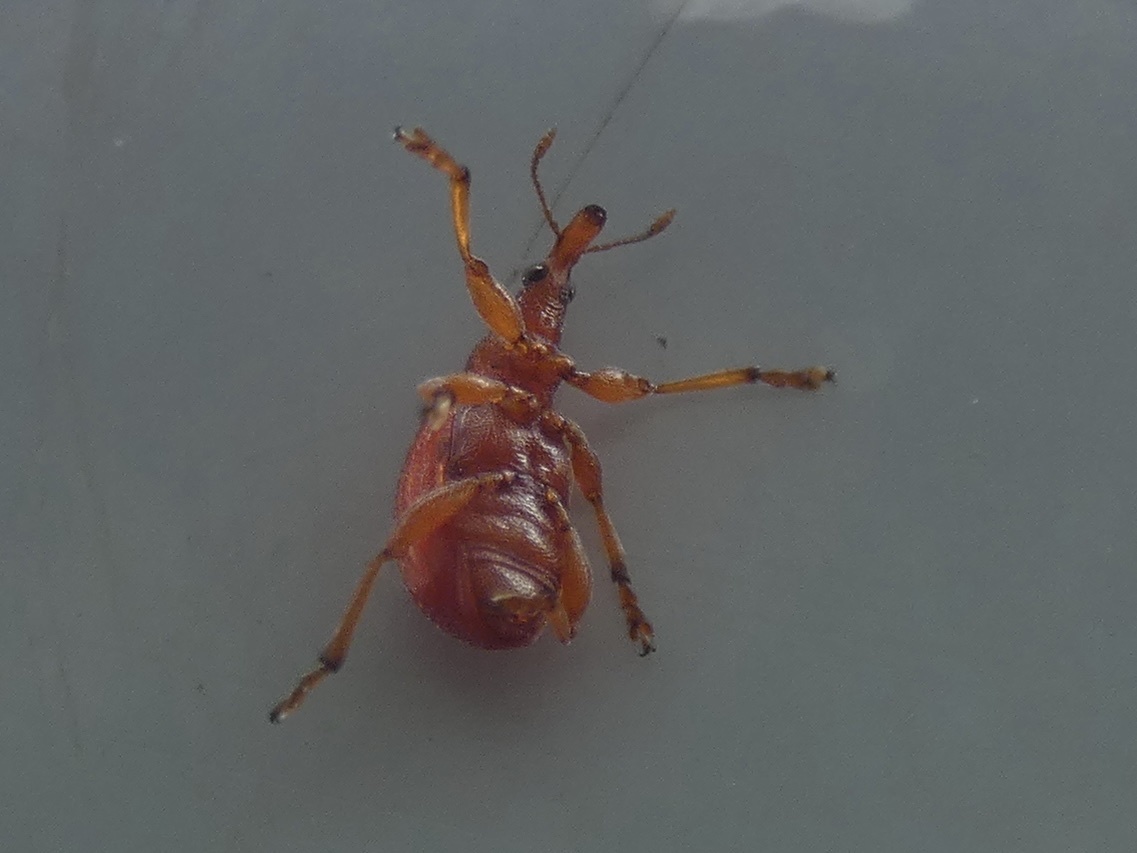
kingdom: Animalia
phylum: Arthropoda
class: Insecta
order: Coleoptera
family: Apionidae
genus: Apion
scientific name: Apion frumentarium
